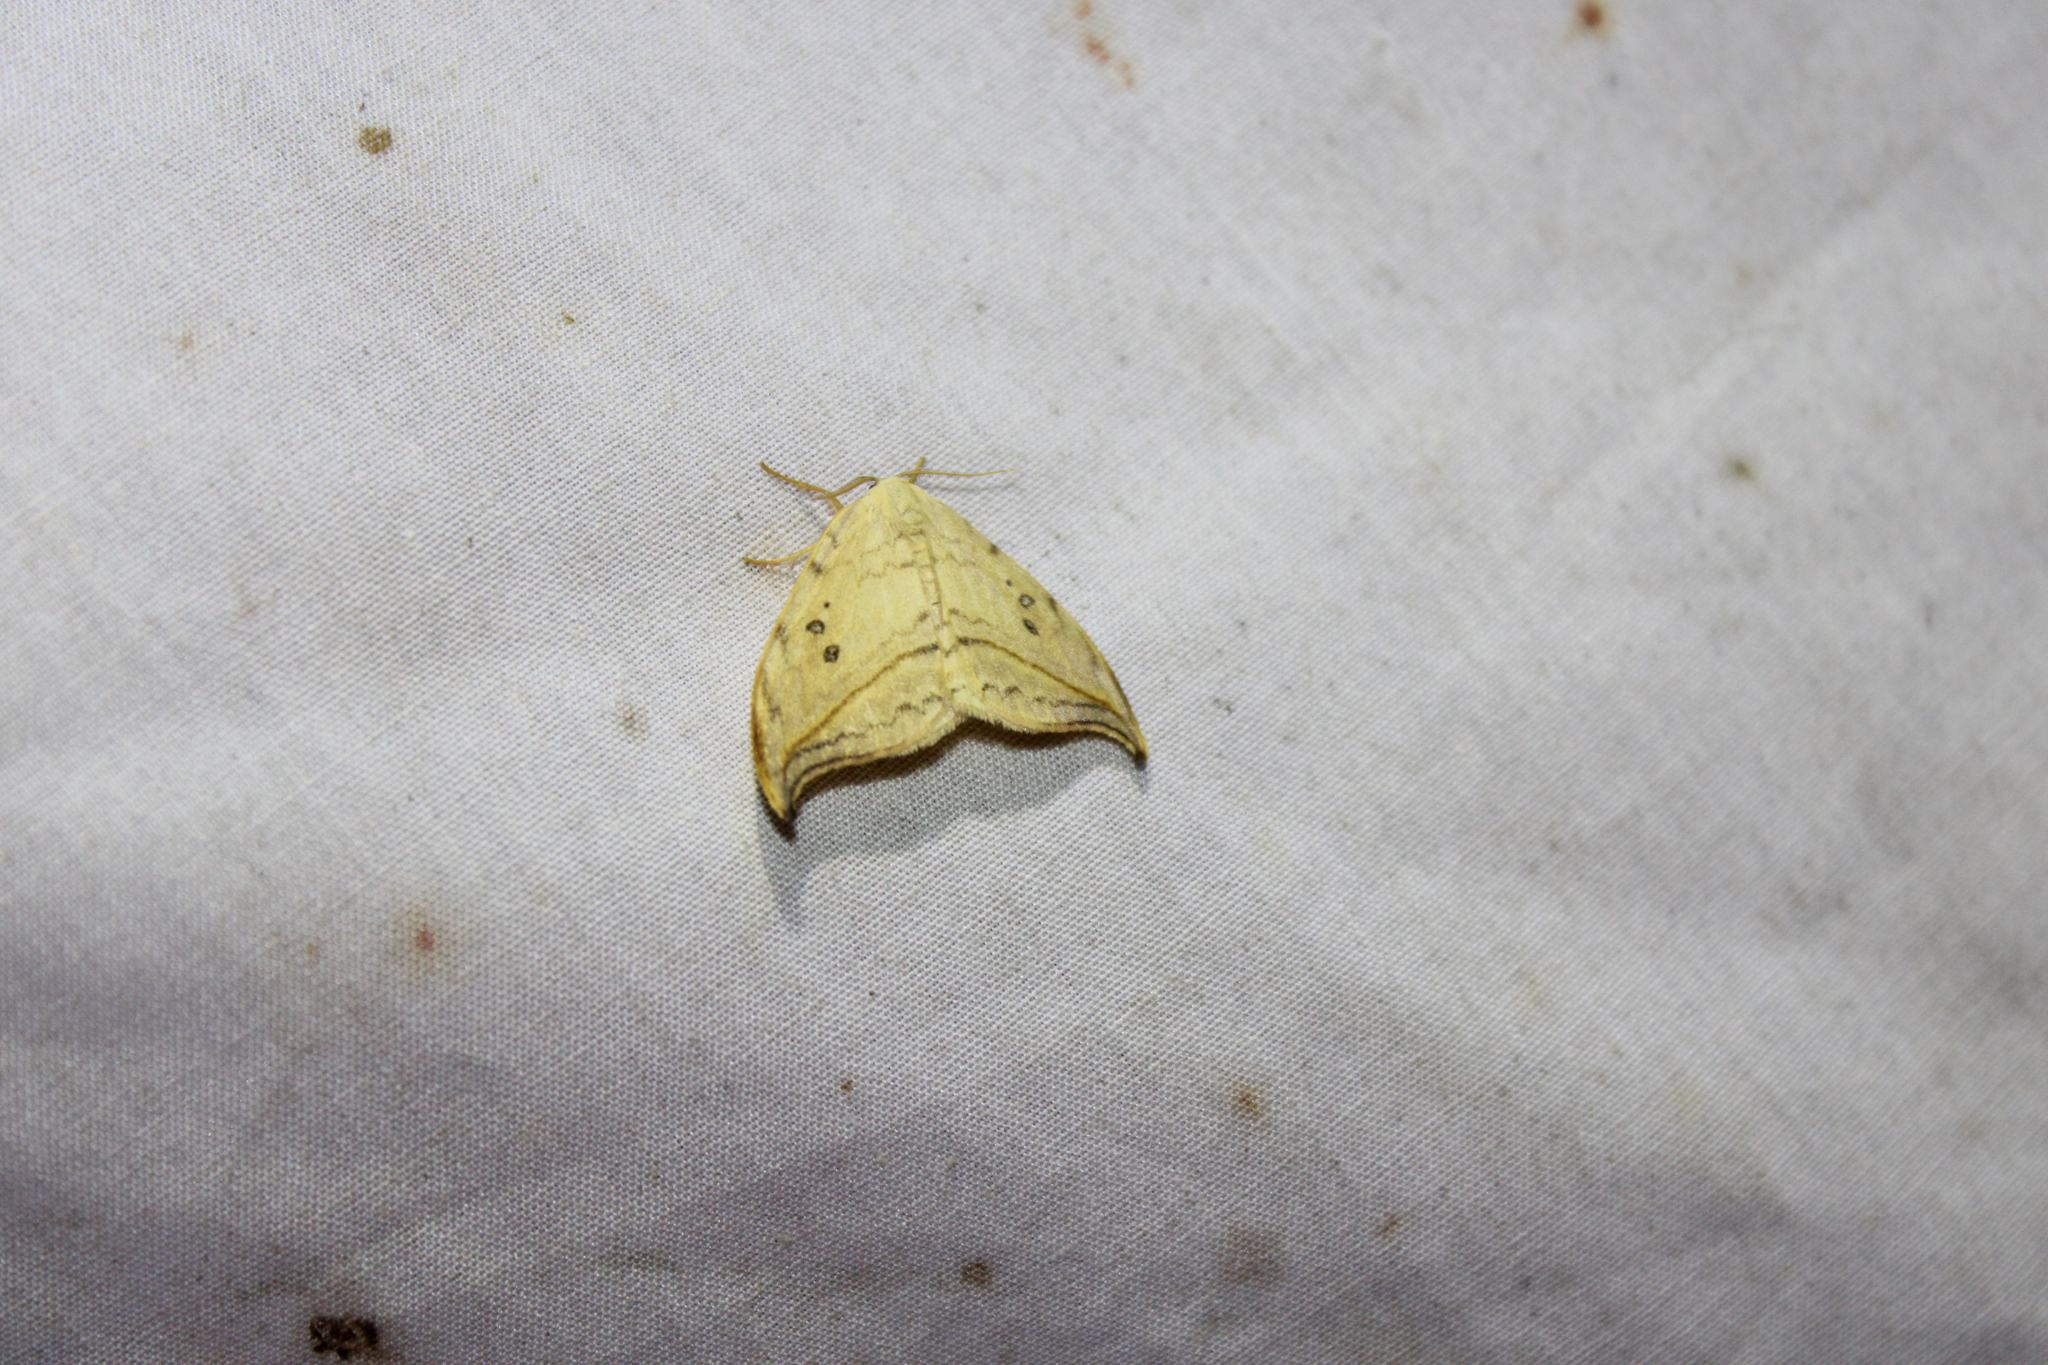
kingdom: Animalia
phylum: Arthropoda
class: Insecta
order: Lepidoptera
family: Drepanidae
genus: Drepana
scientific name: Drepana arcuata
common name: Arched hooktip moth
